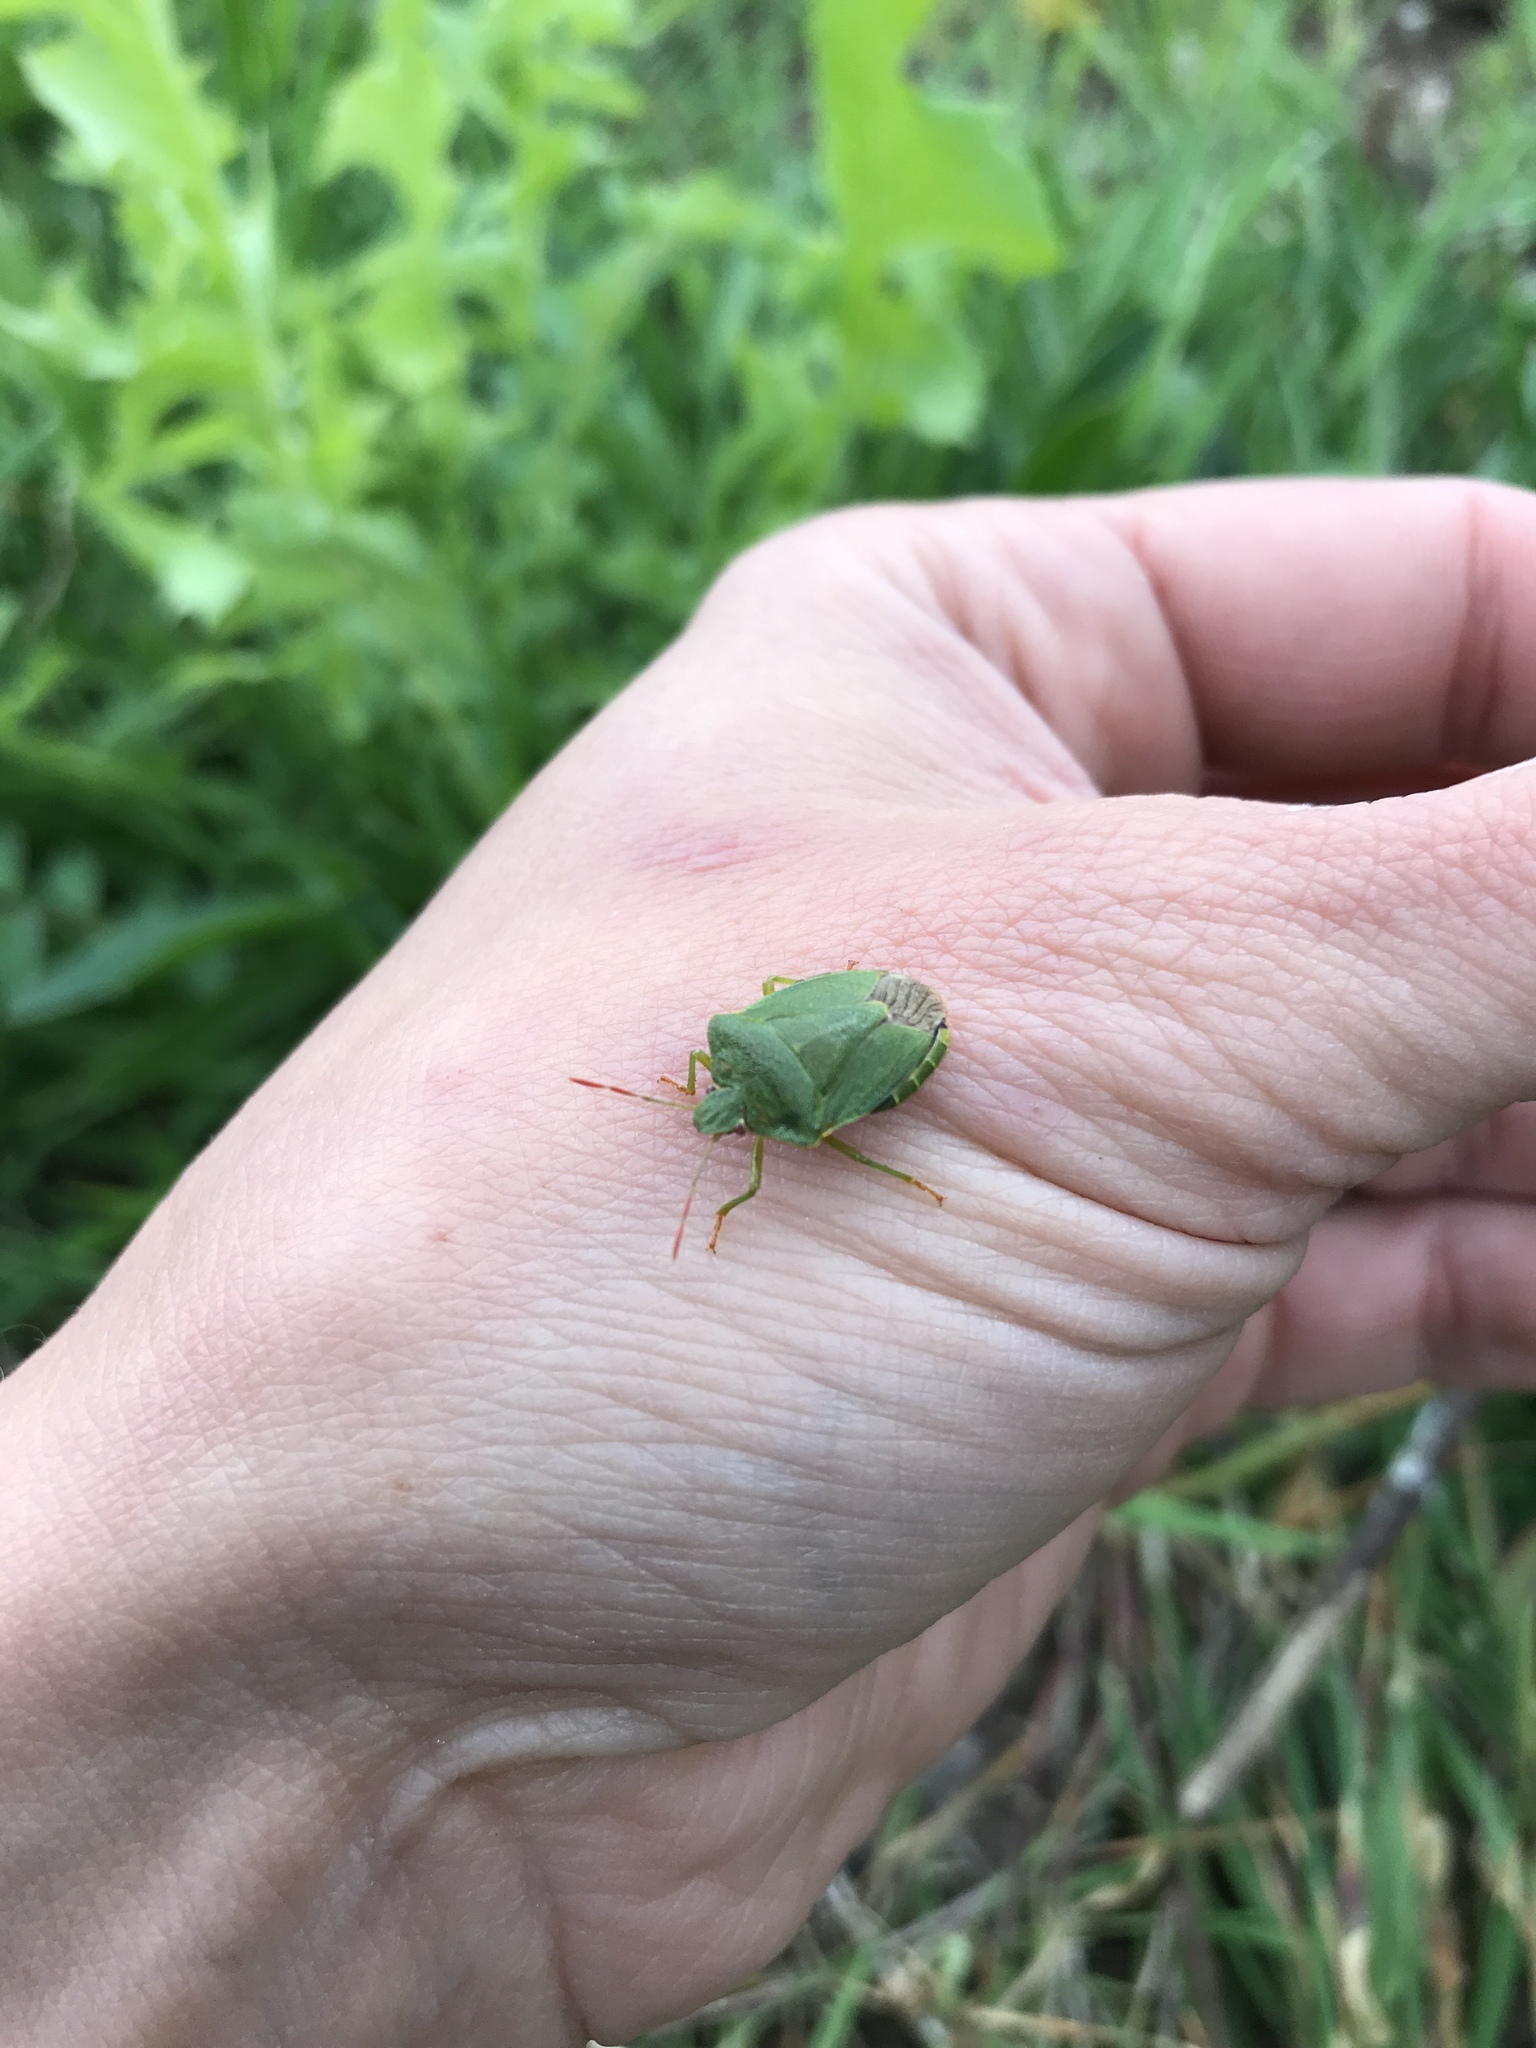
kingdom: Animalia
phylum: Arthropoda
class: Insecta
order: Hemiptera
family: Pentatomidae
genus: Palomena
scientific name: Palomena prasina
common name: Green shieldbug
